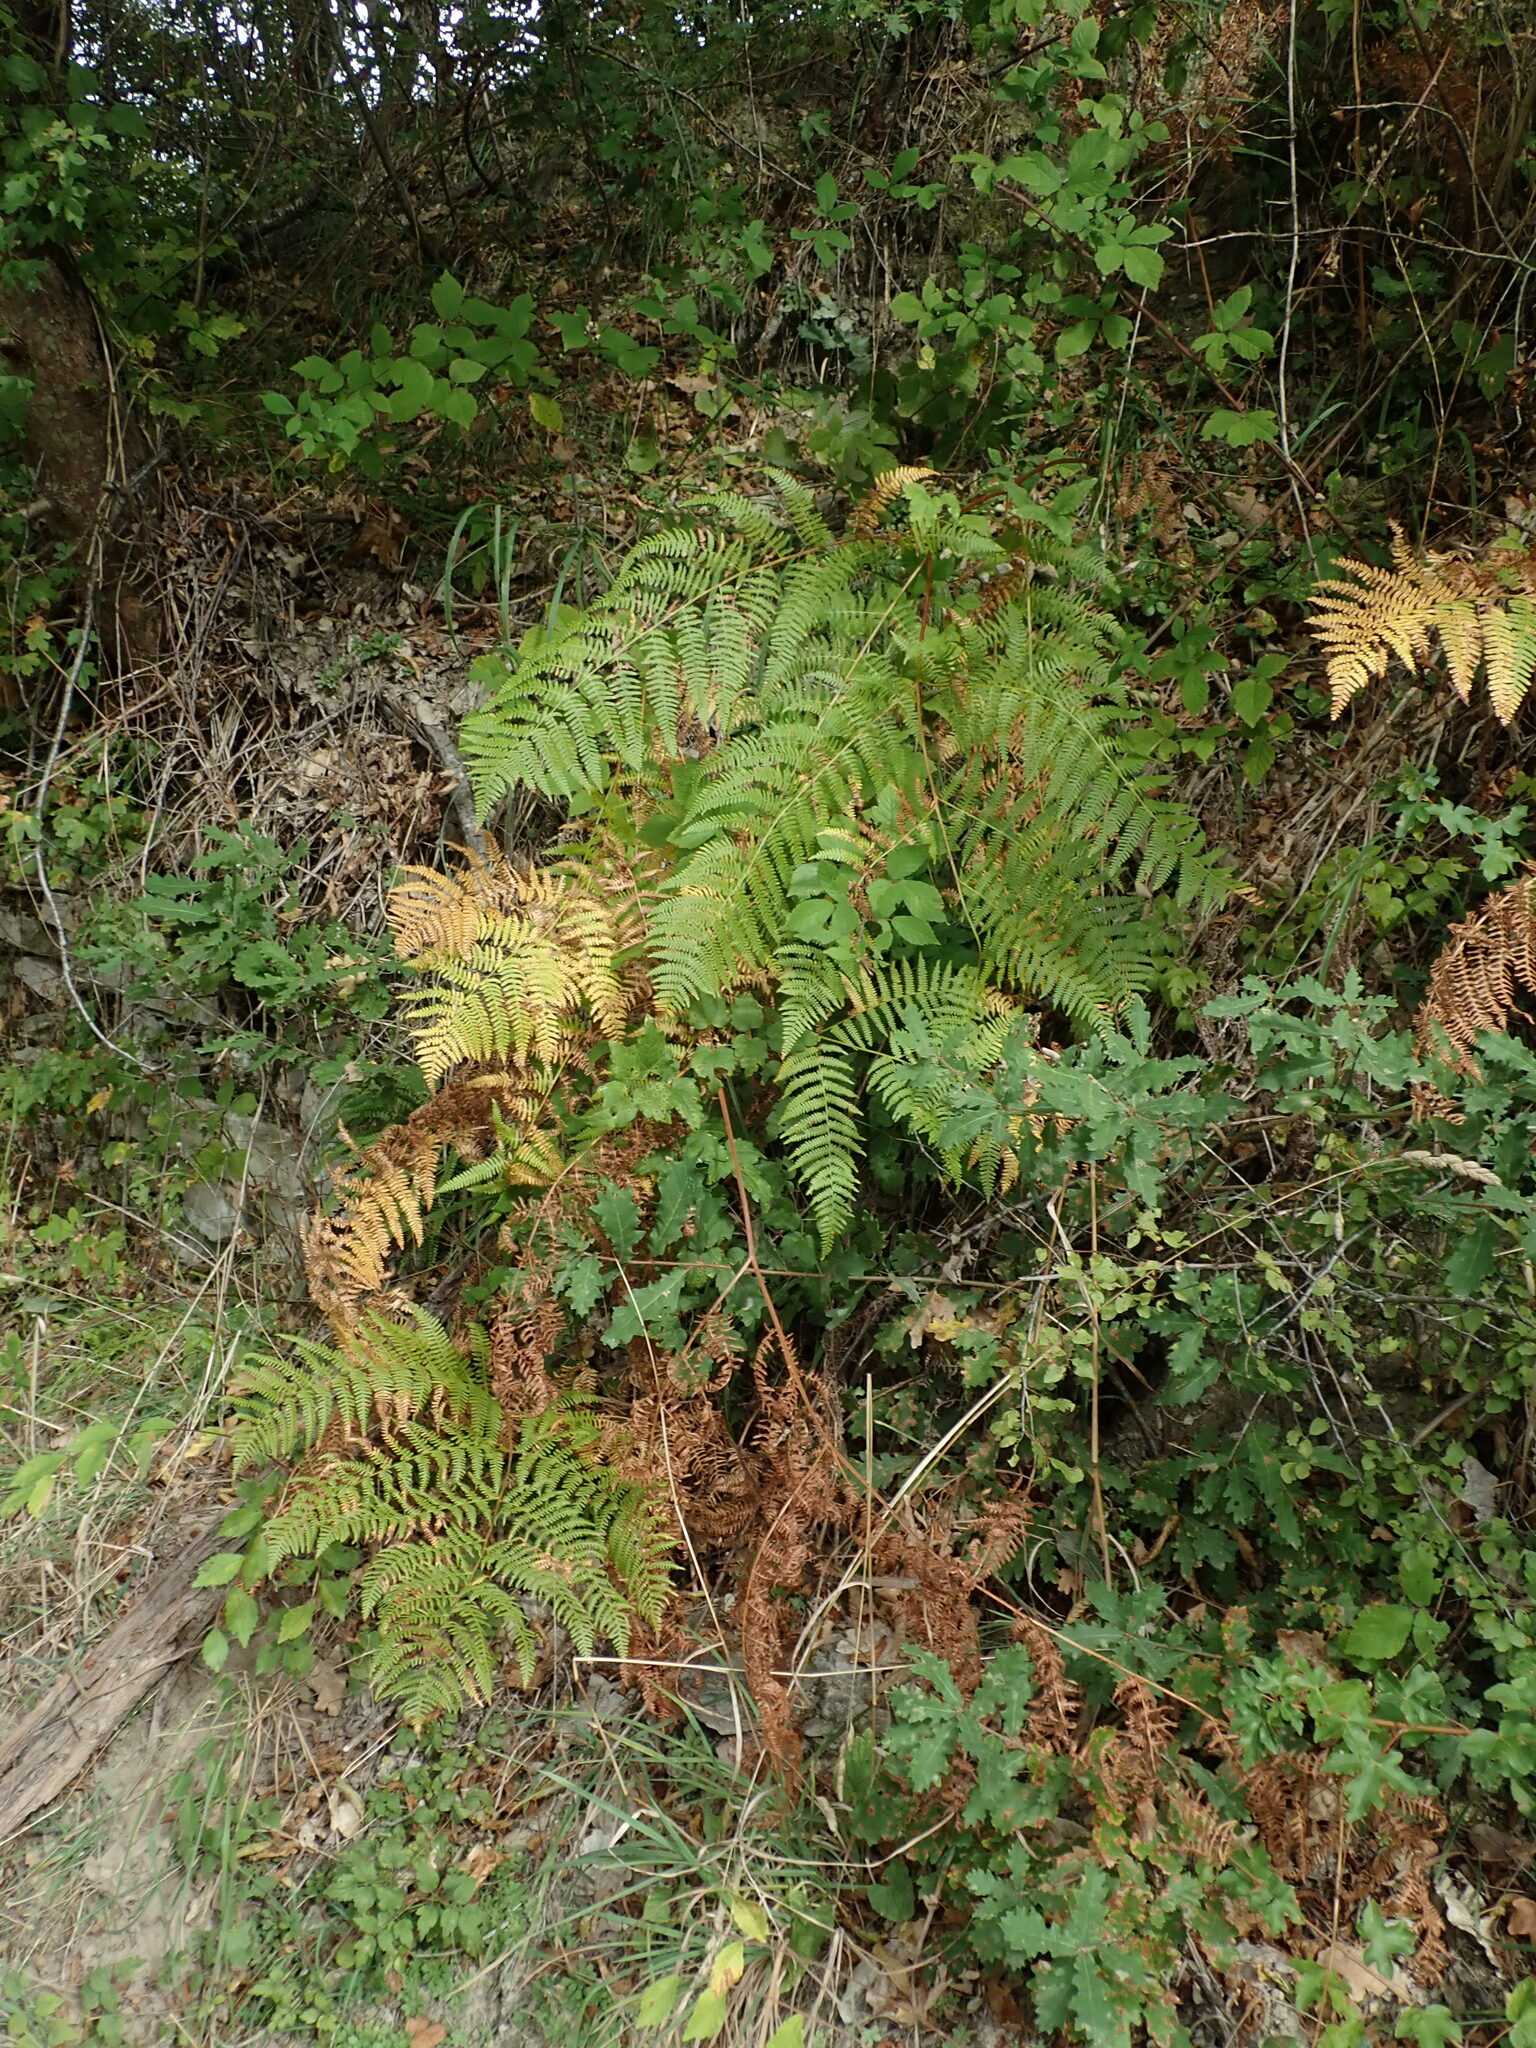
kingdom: Plantae
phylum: Tracheophyta
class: Polypodiopsida
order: Polypodiales
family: Dennstaedtiaceae
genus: Pteridium
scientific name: Pteridium aquilinum
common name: Bracken
